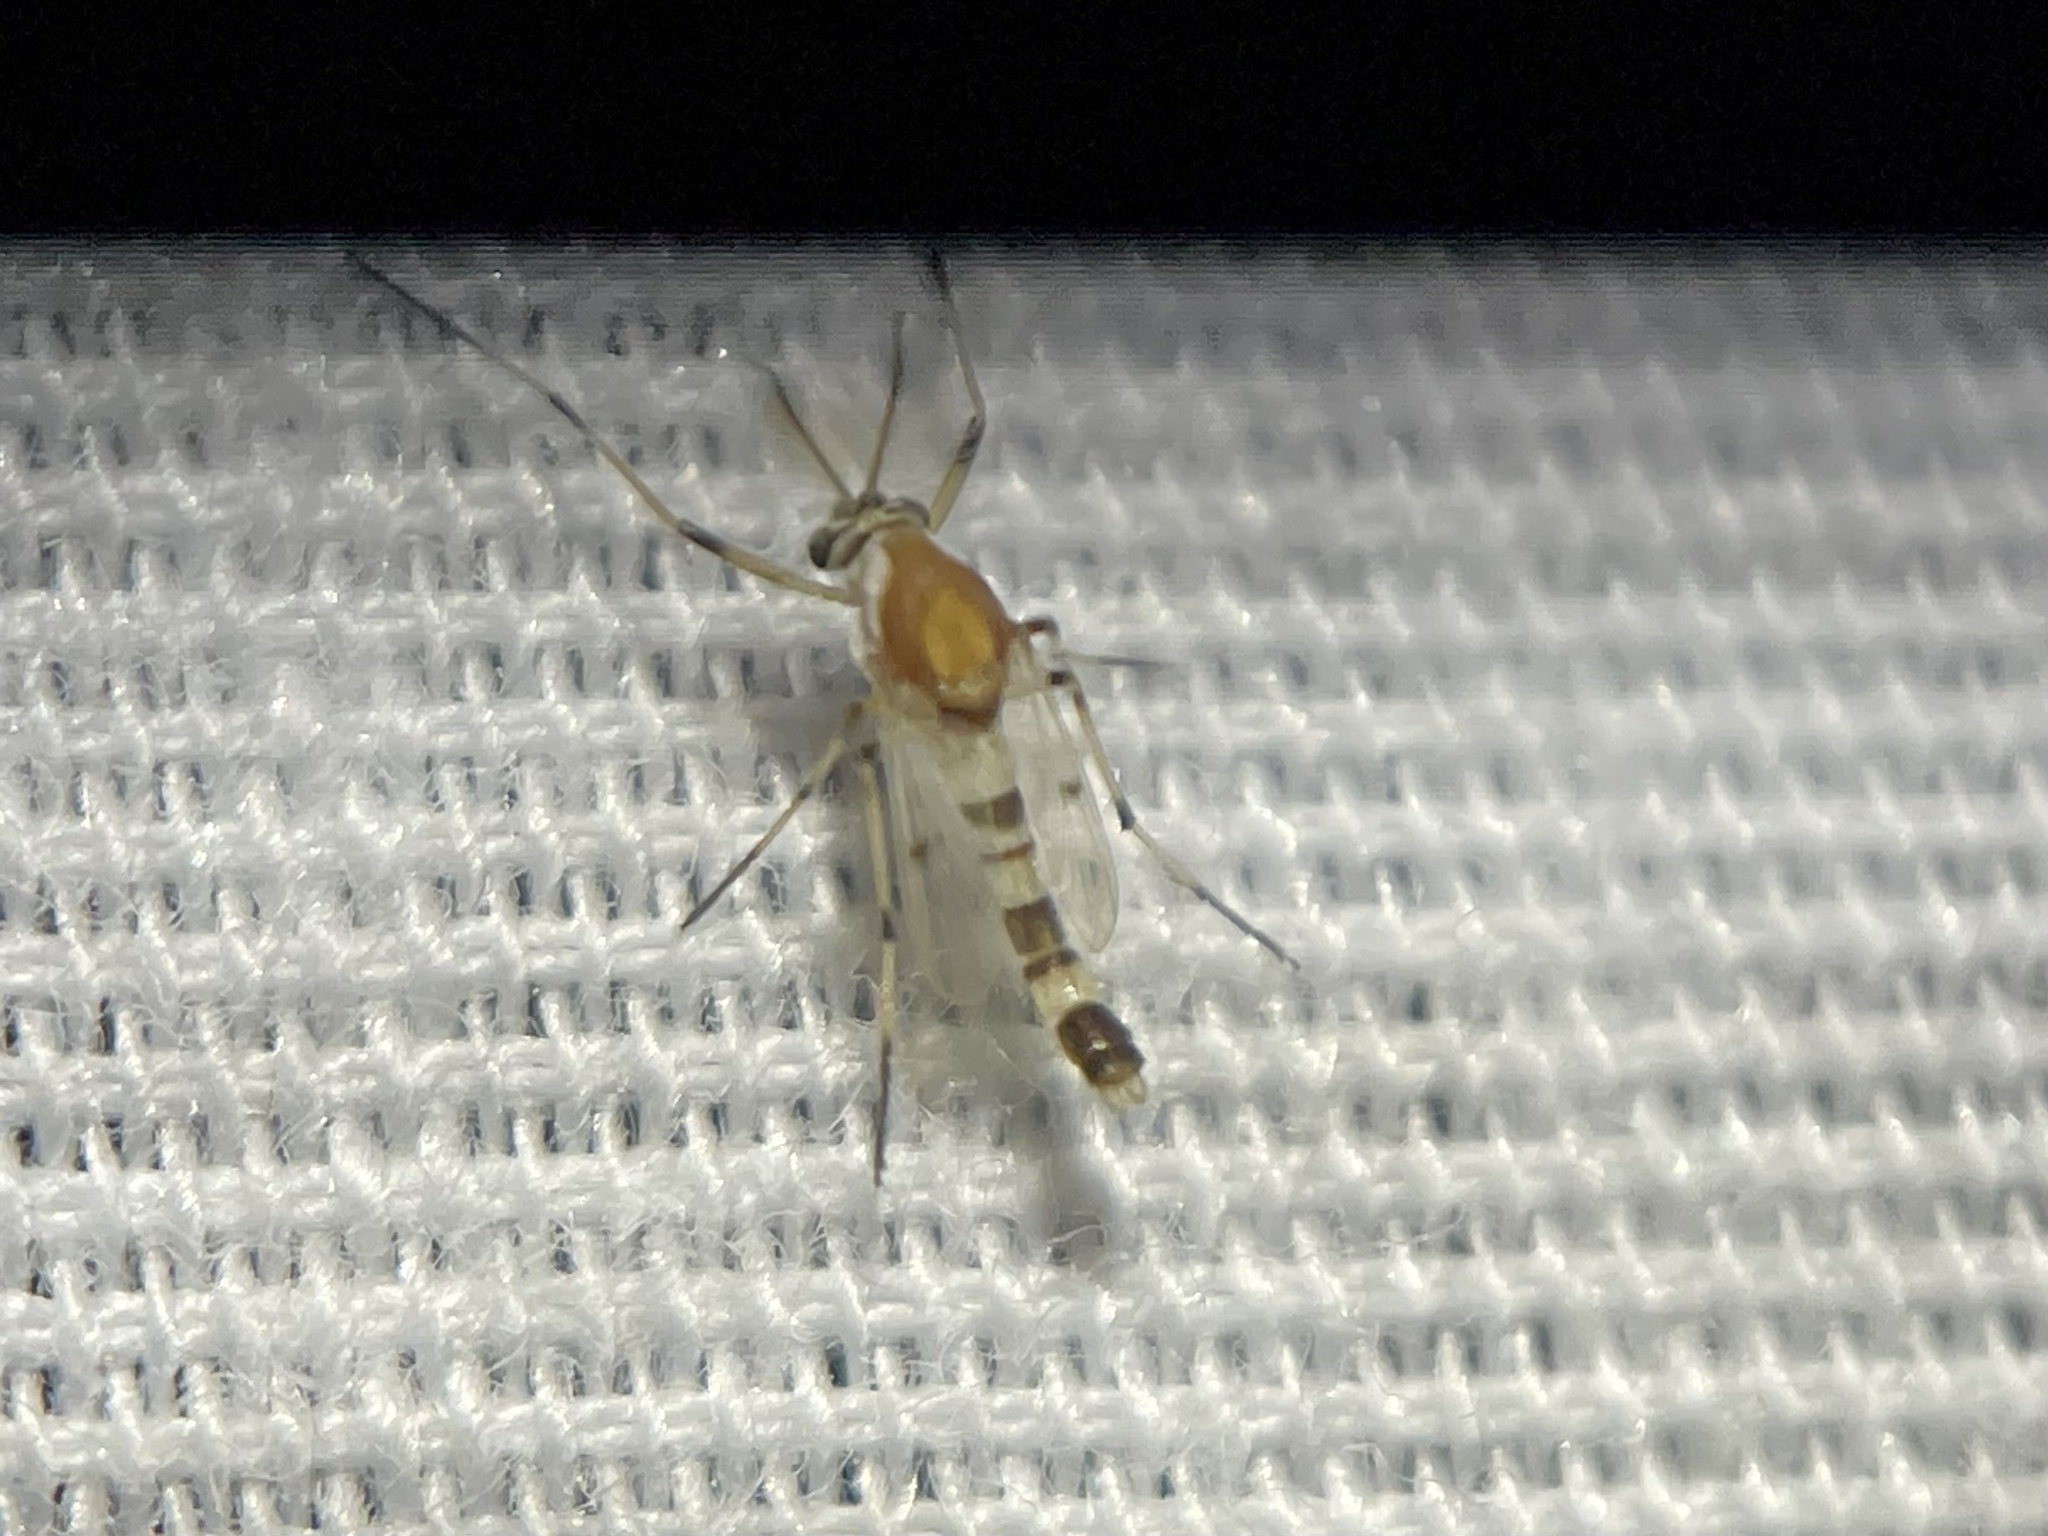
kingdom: Animalia
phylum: Arthropoda
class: Insecta
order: Diptera
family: Chironomidae
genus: Coelotanypus
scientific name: Coelotanypus atus
